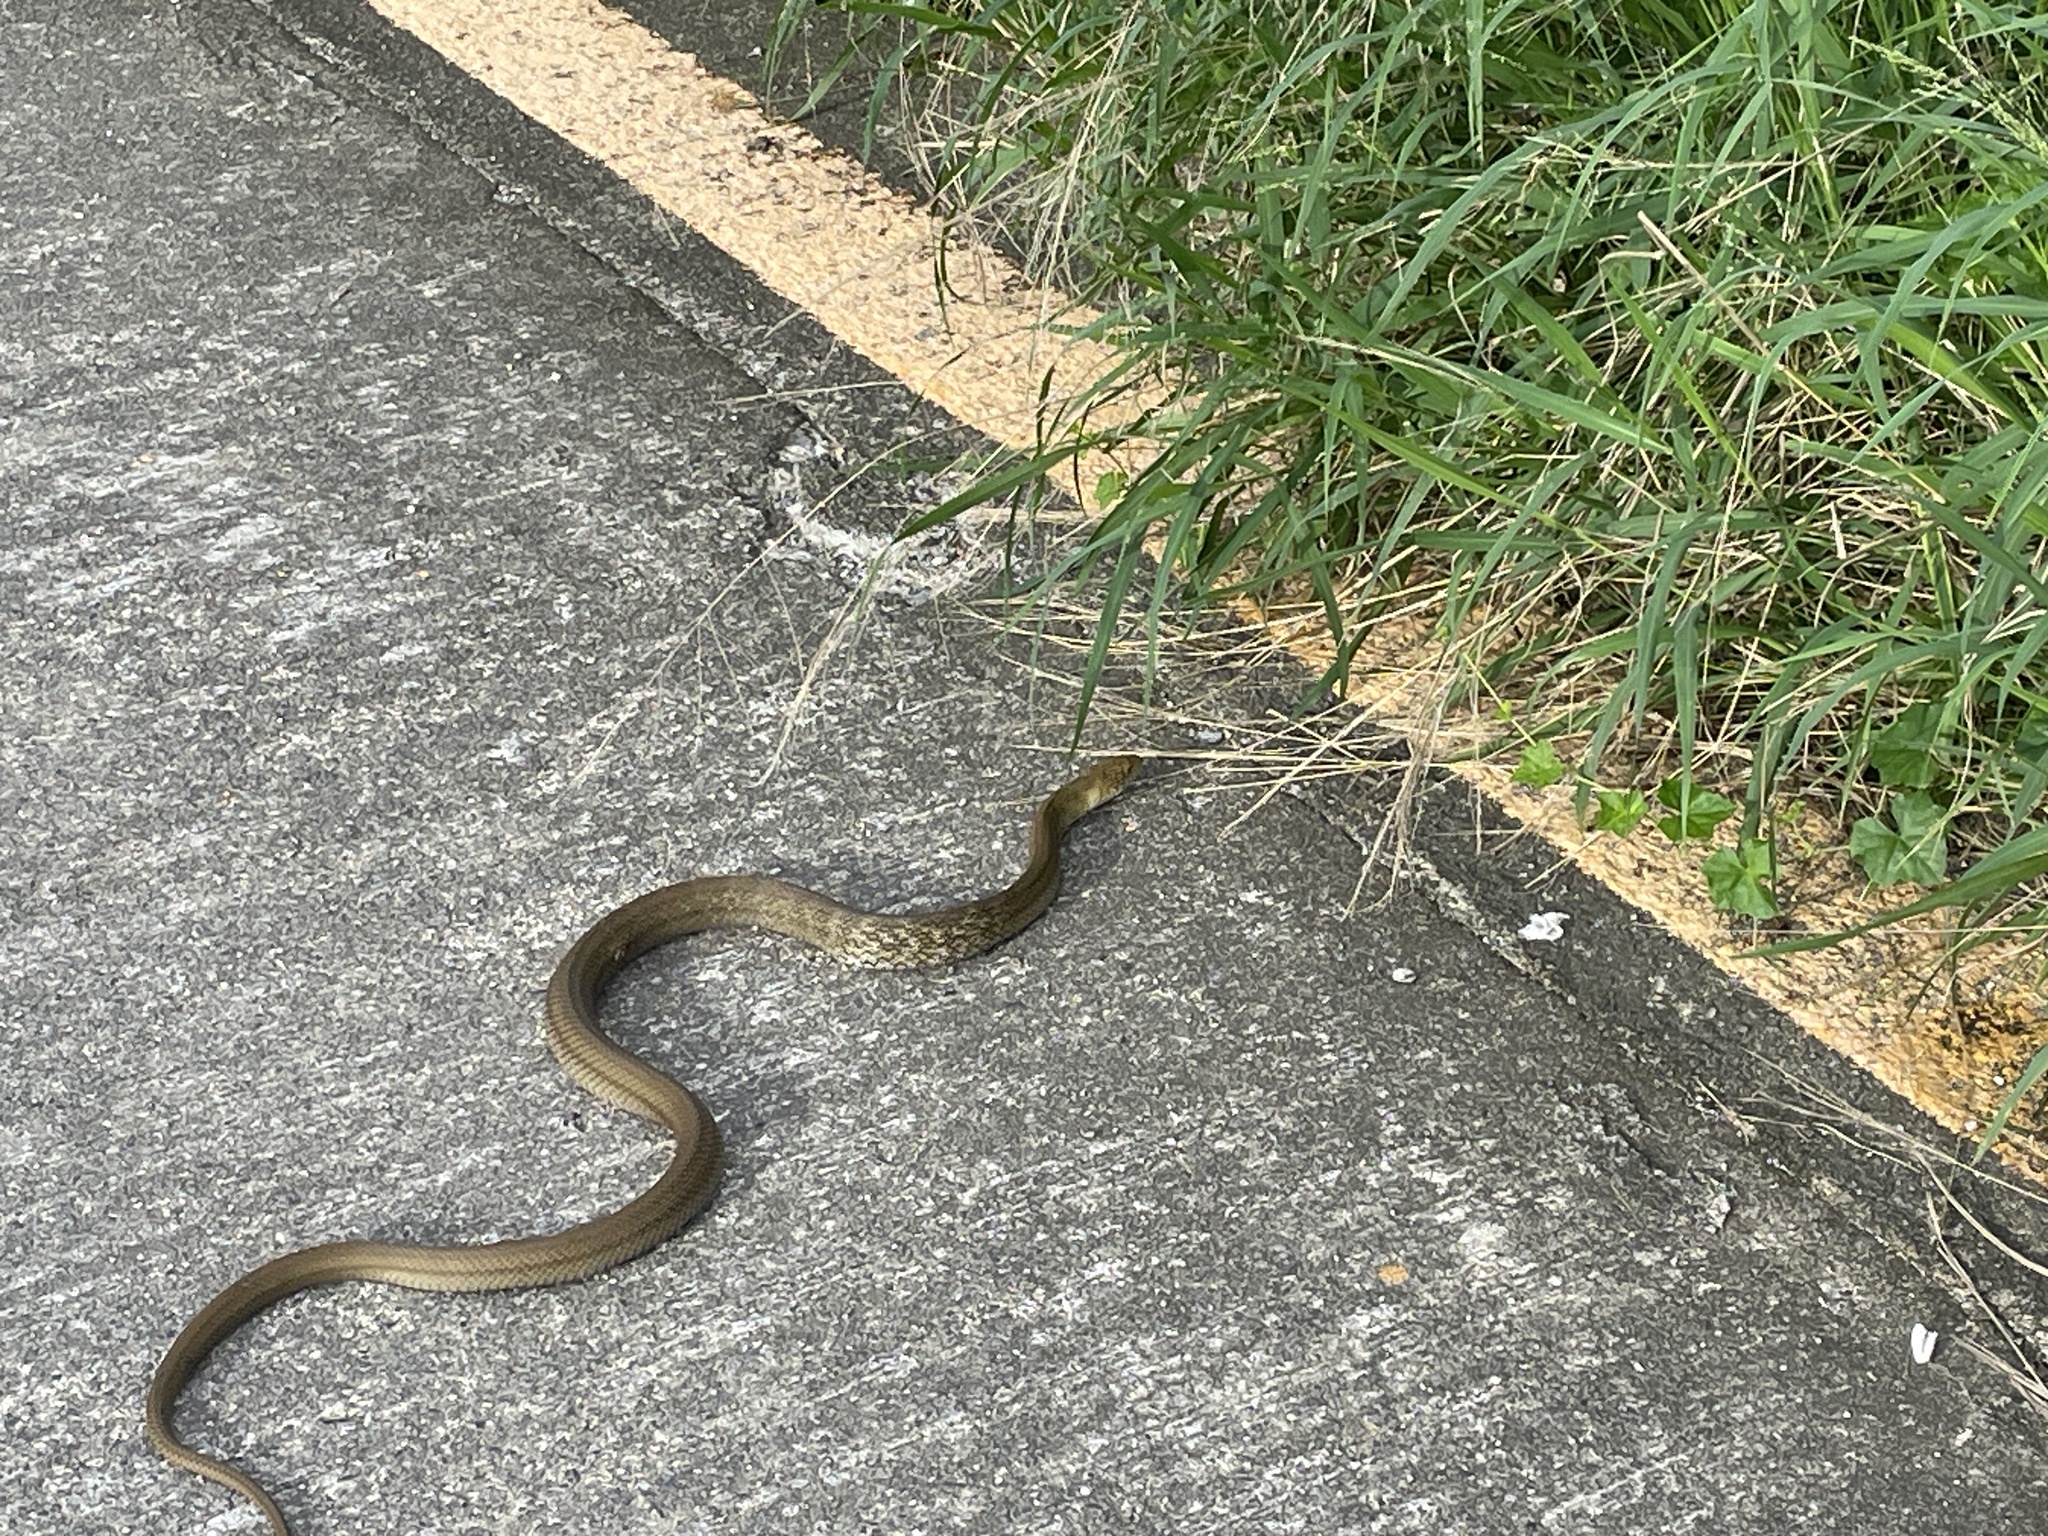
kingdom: Animalia
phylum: Chordata
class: Squamata
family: Colubridae
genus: Elaphe
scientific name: Elaphe carinata
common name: Taiwan stink snake
